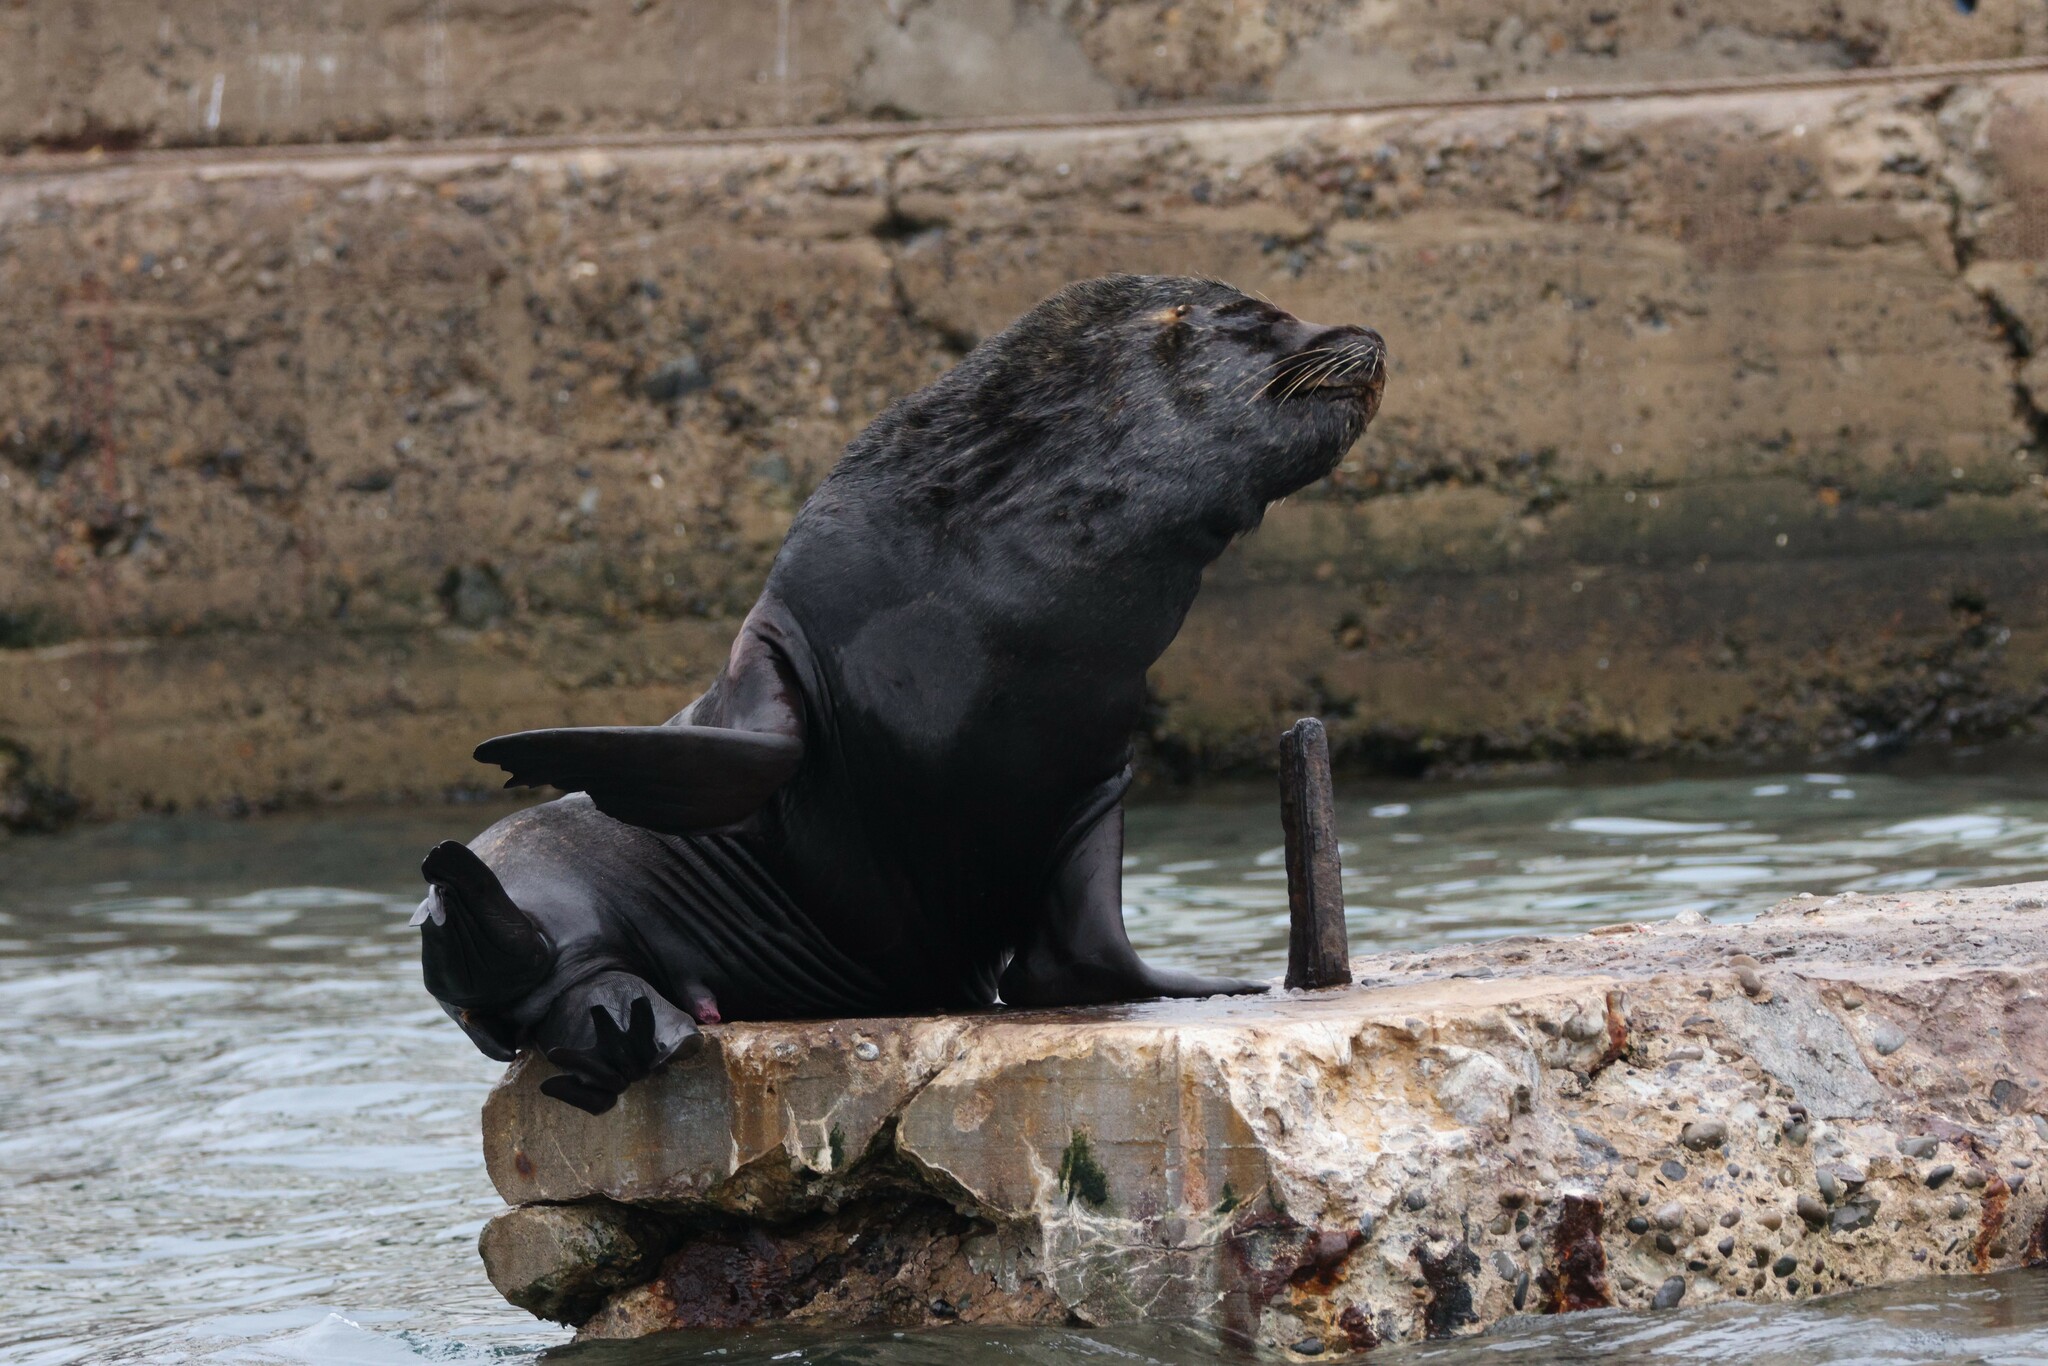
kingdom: Animalia
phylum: Chordata
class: Mammalia
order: Carnivora
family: Otariidae
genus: Otaria
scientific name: Otaria byronia
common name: South american sea lion
